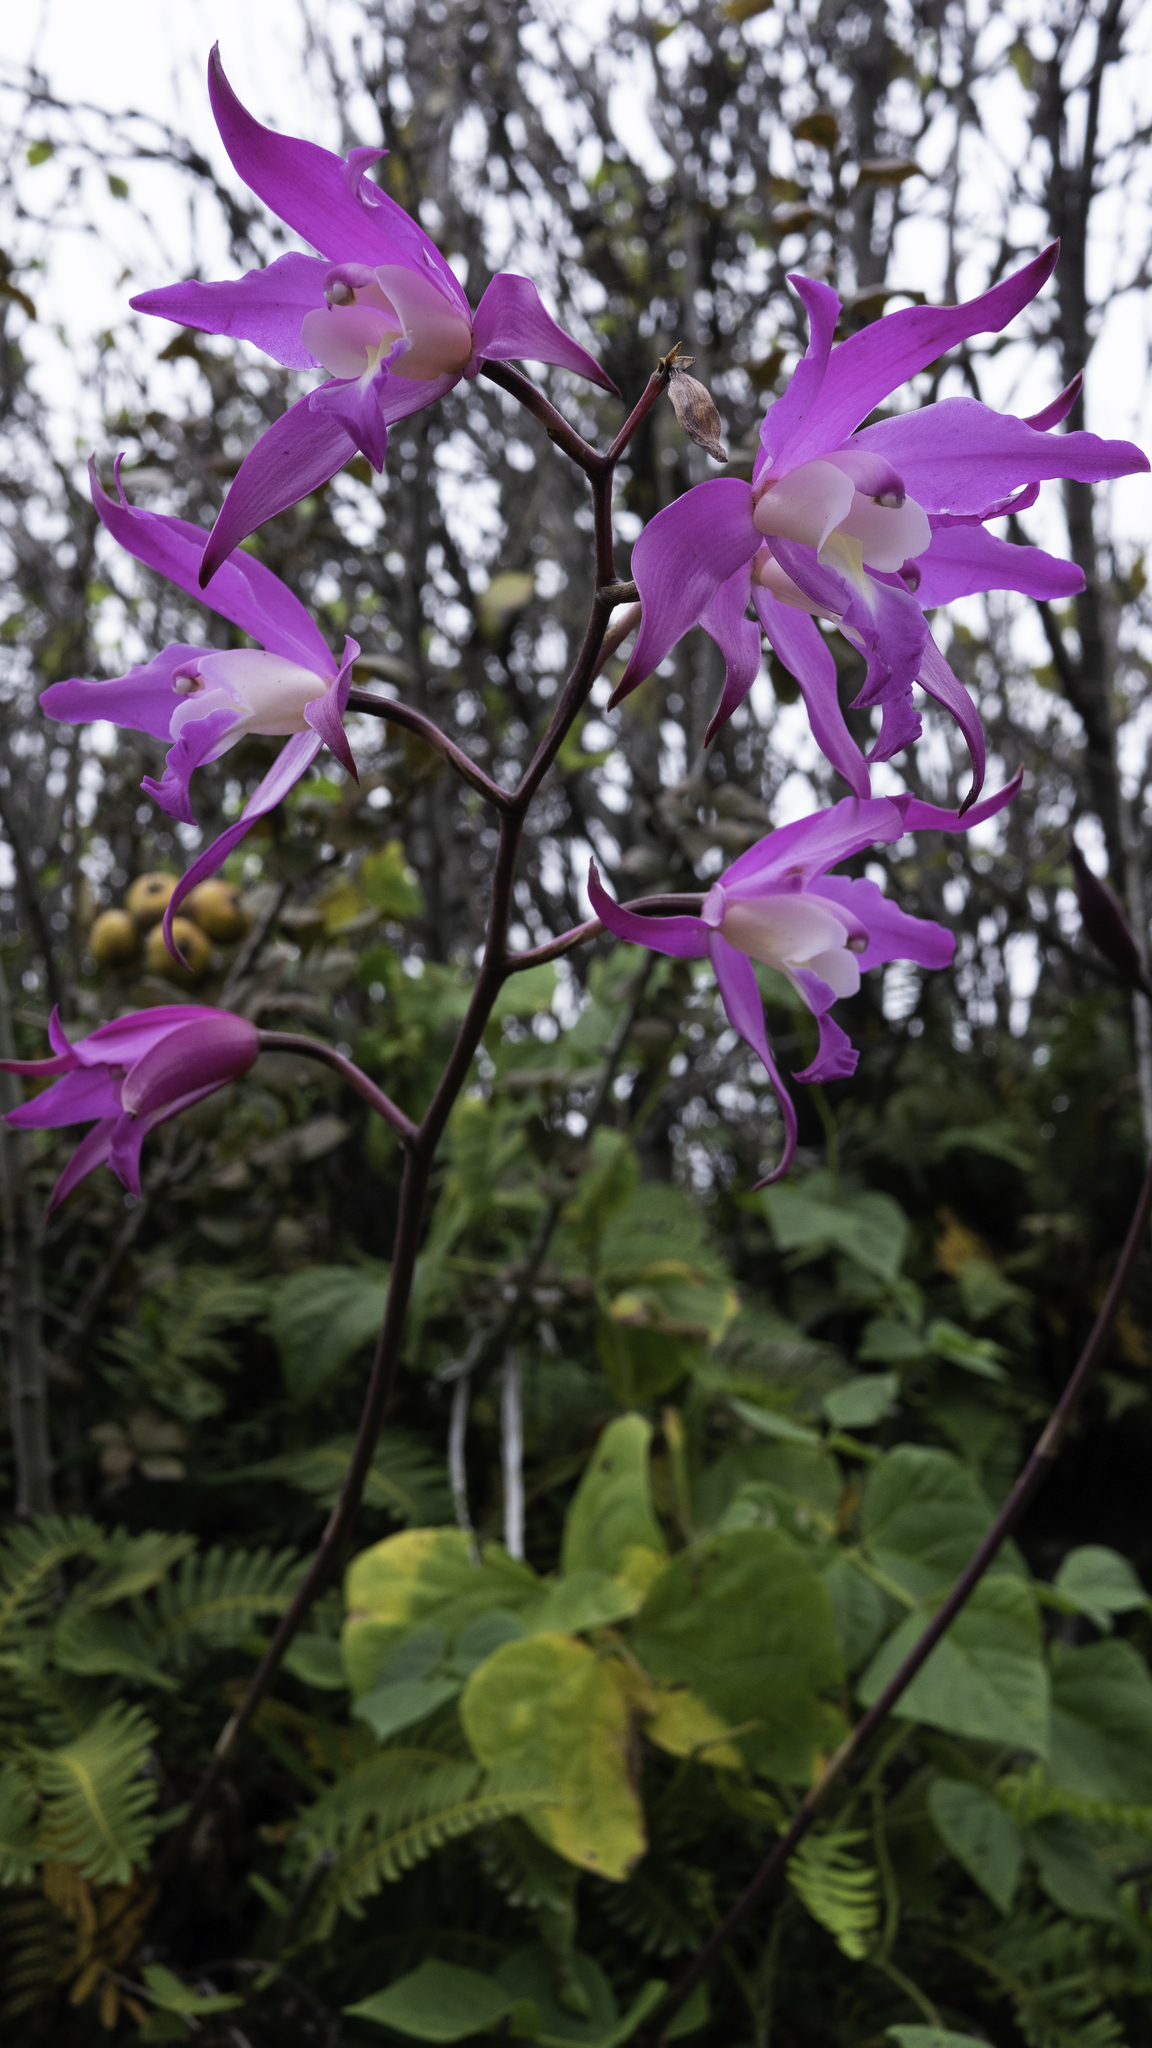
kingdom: Plantae
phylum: Tracheophyta
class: Liliopsida
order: Asparagales
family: Orchidaceae
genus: Laelia
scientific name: Laelia autumnalis
